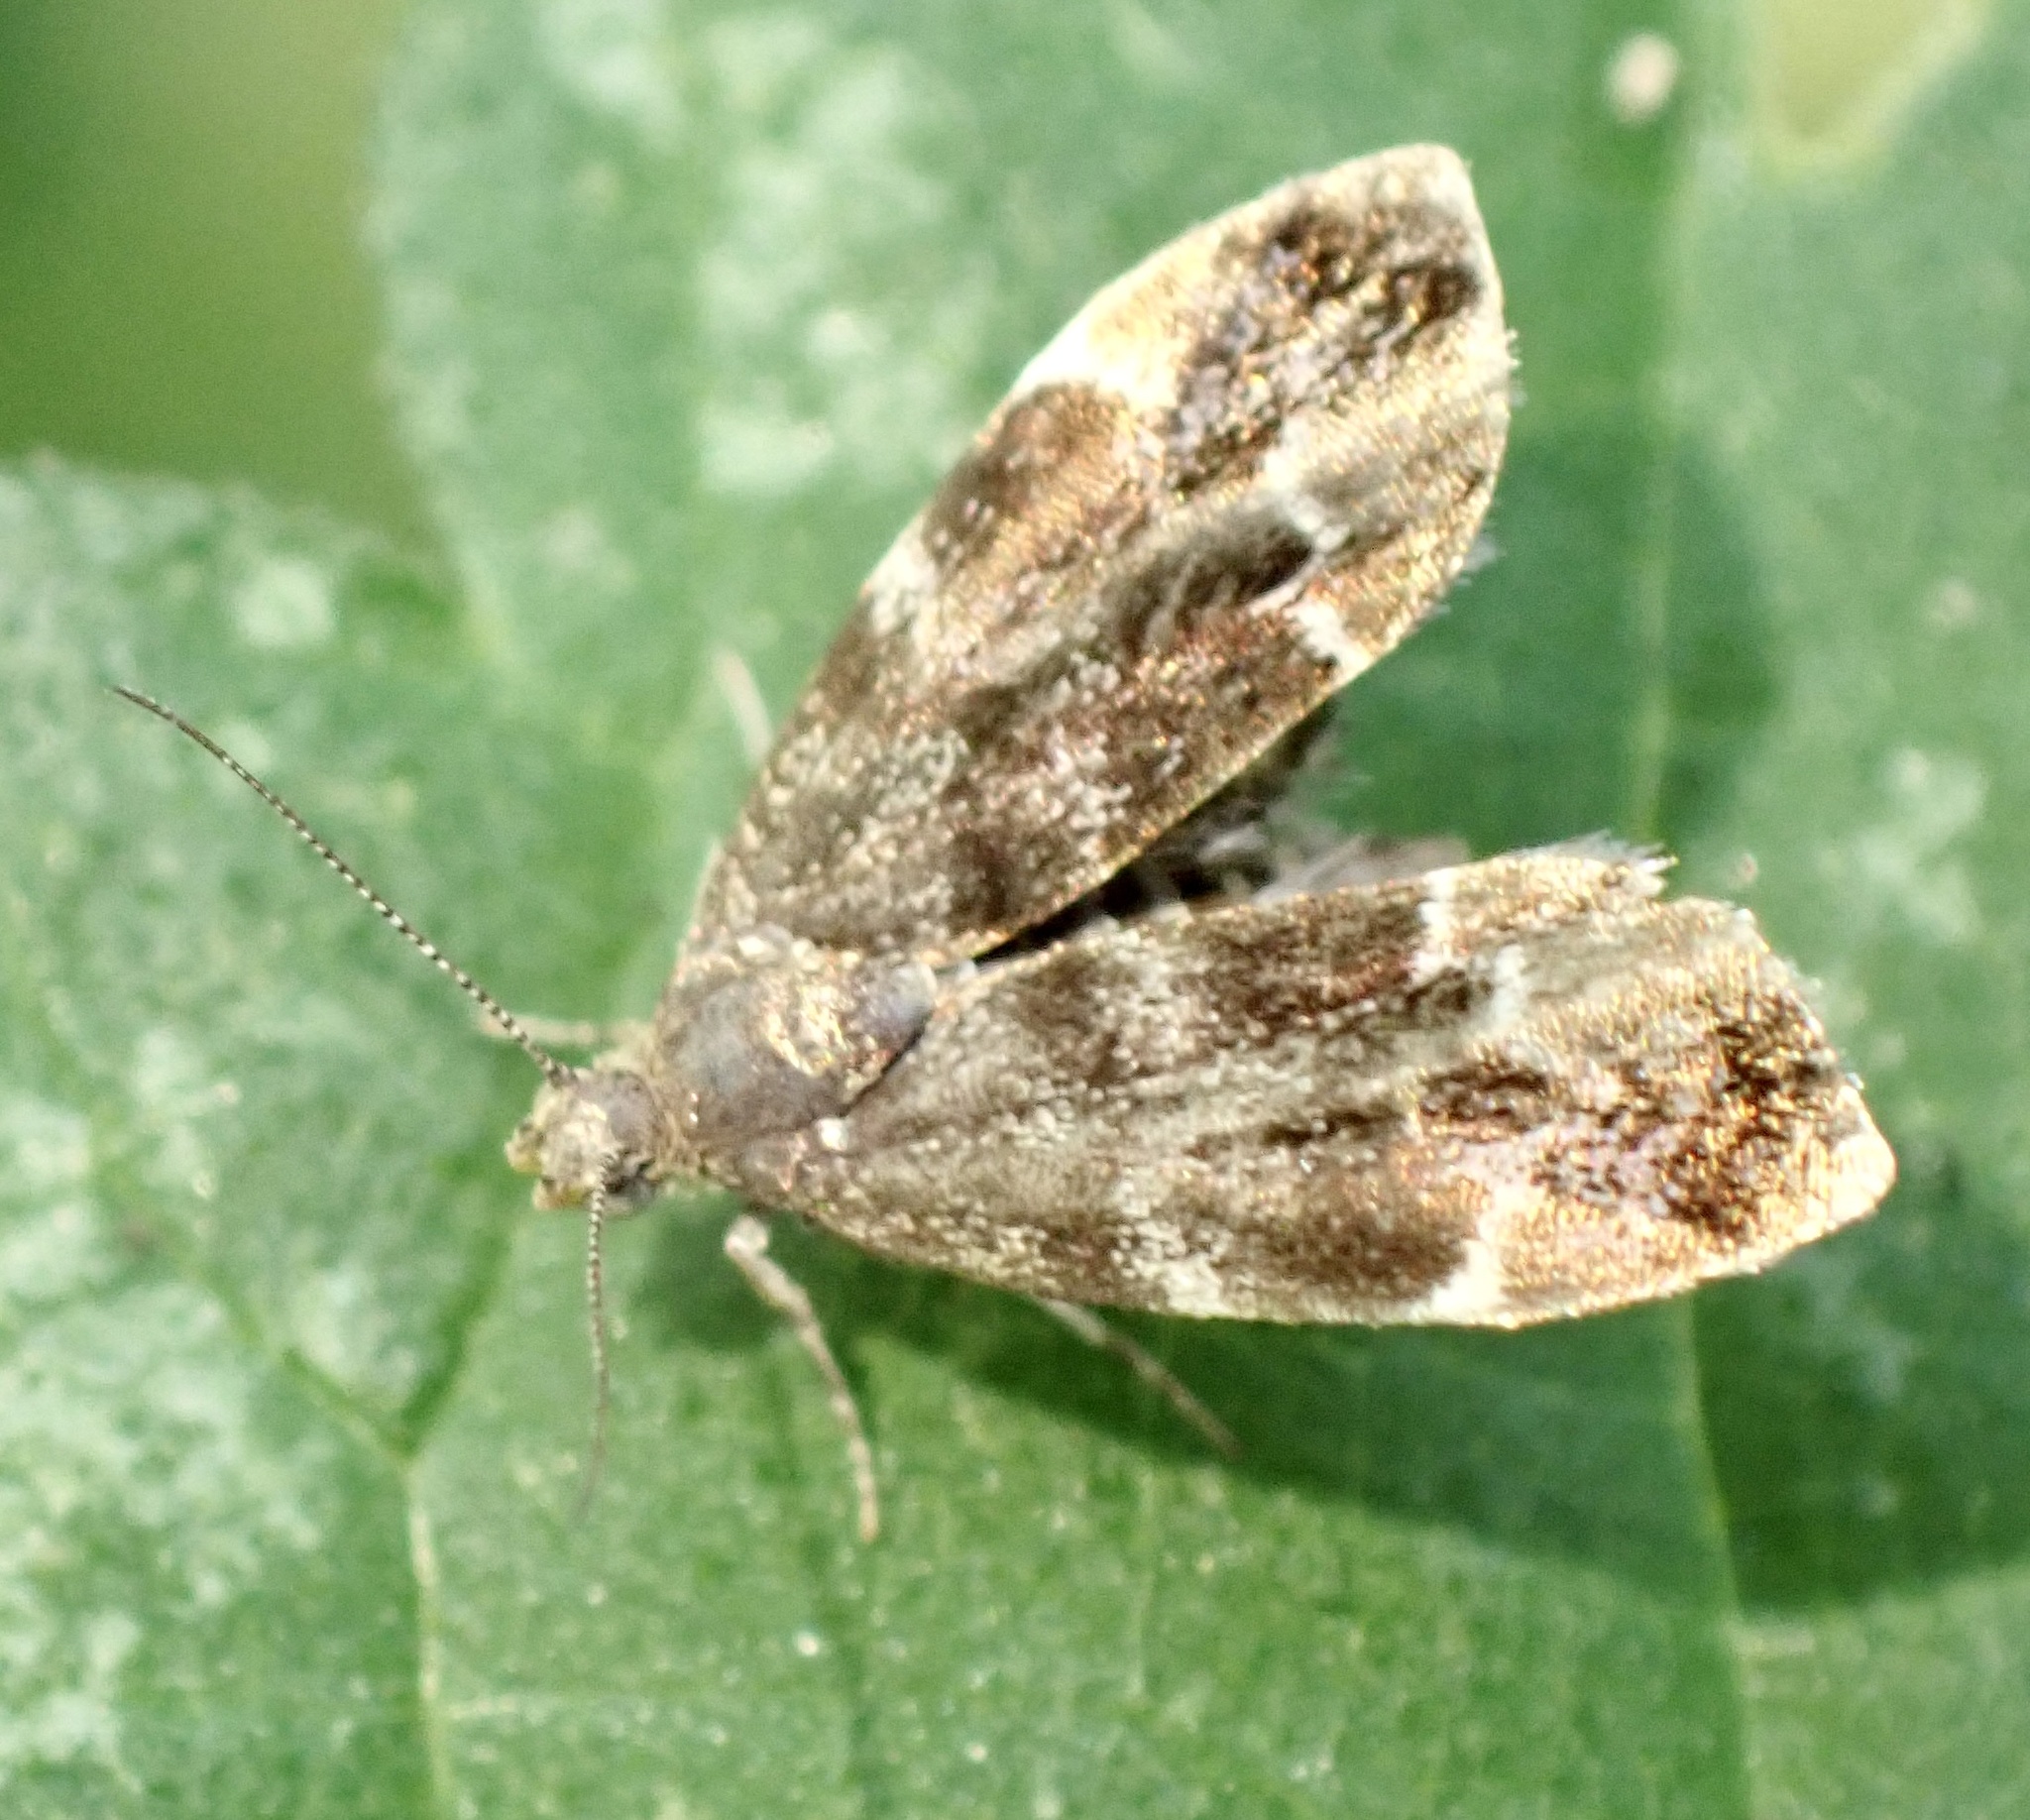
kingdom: Animalia
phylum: Arthropoda
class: Insecta
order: Lepidoptera
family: Choreutidae
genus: Anthophila
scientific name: Anthophila fabriciana
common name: Nettle-tap
